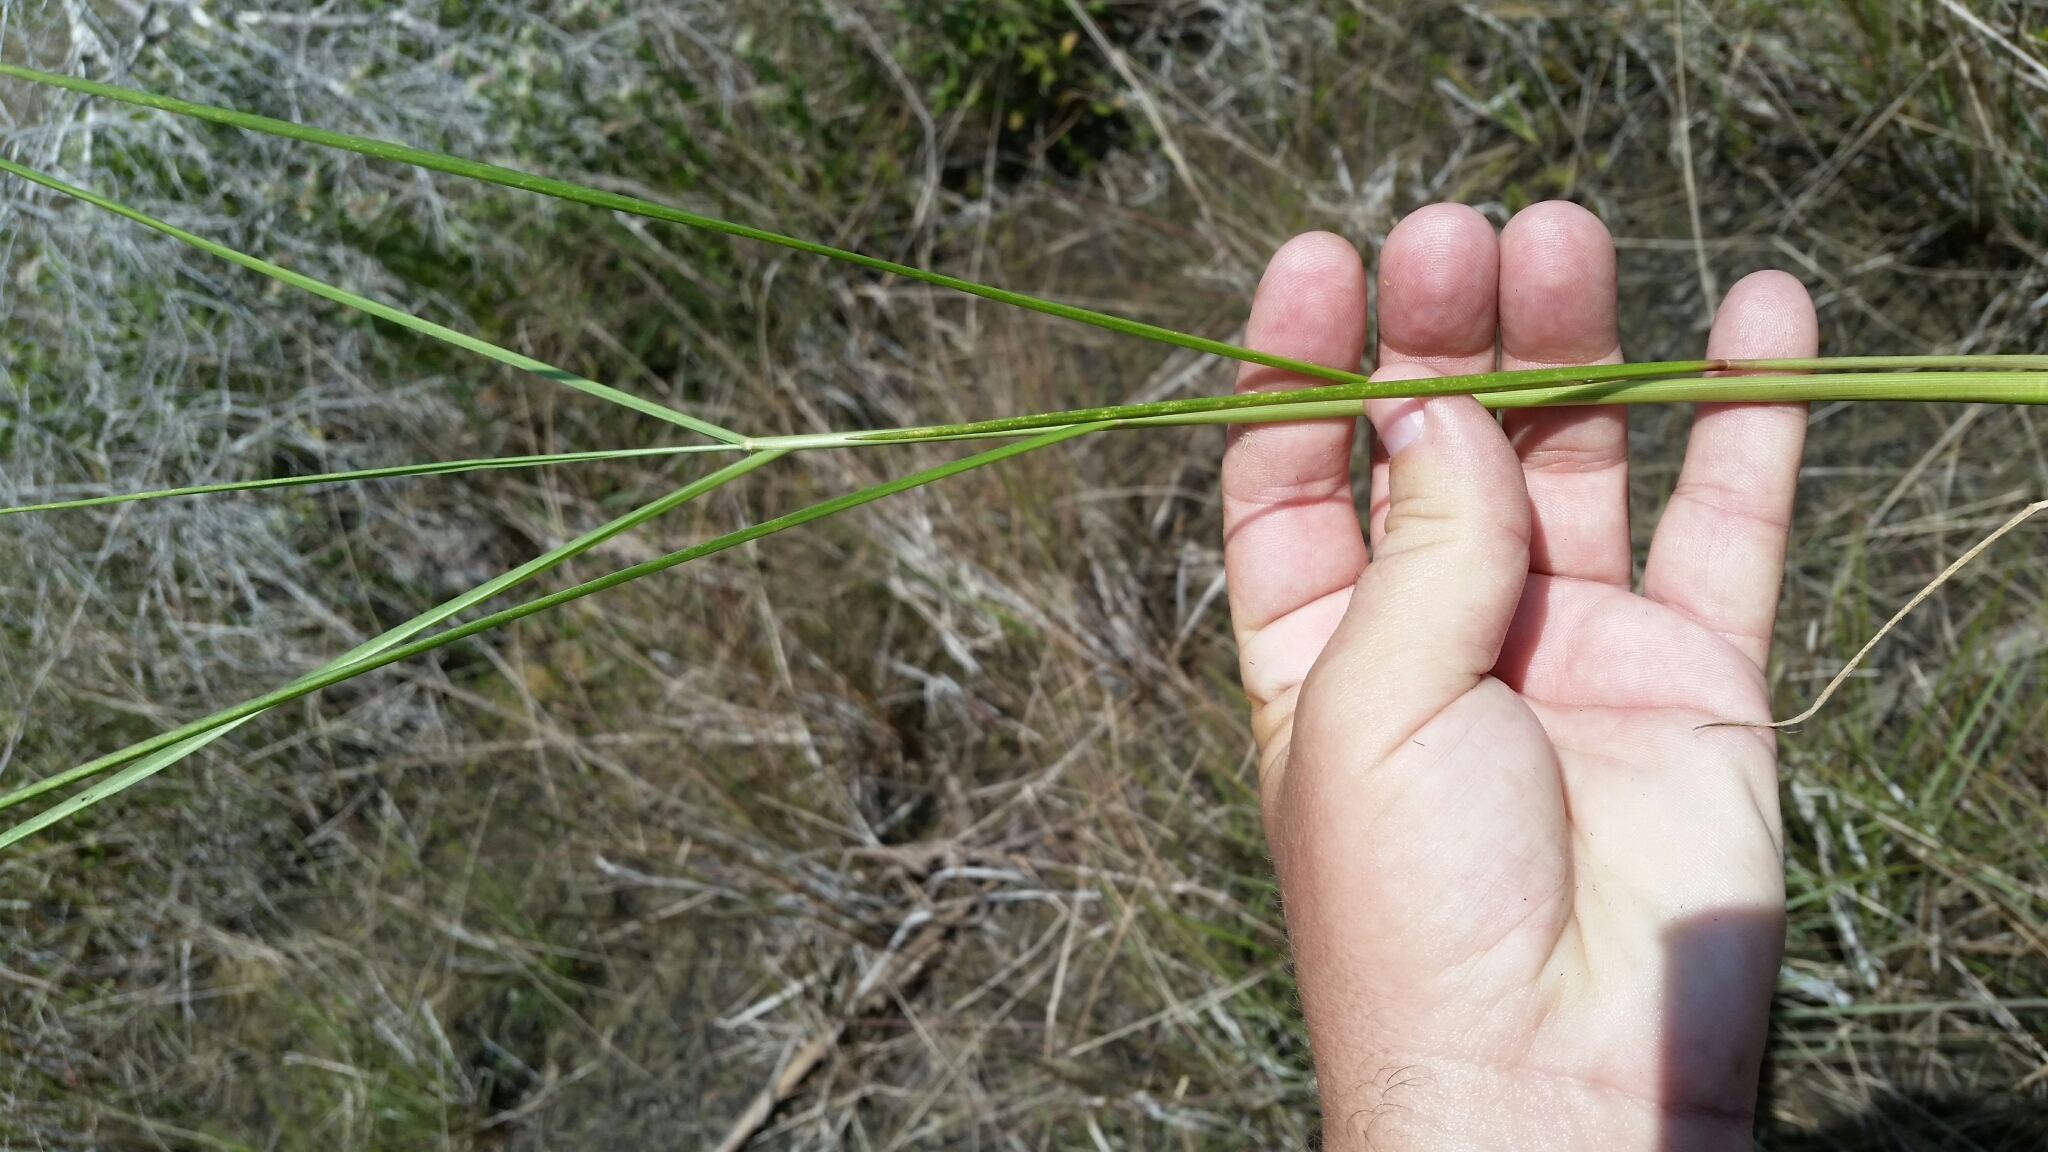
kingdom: Plantae
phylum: Tracheophyta
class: Liliopsida
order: Poales
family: Poaceae
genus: Panicum
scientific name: Panicum dichotomiflorum
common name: Autumn millet
